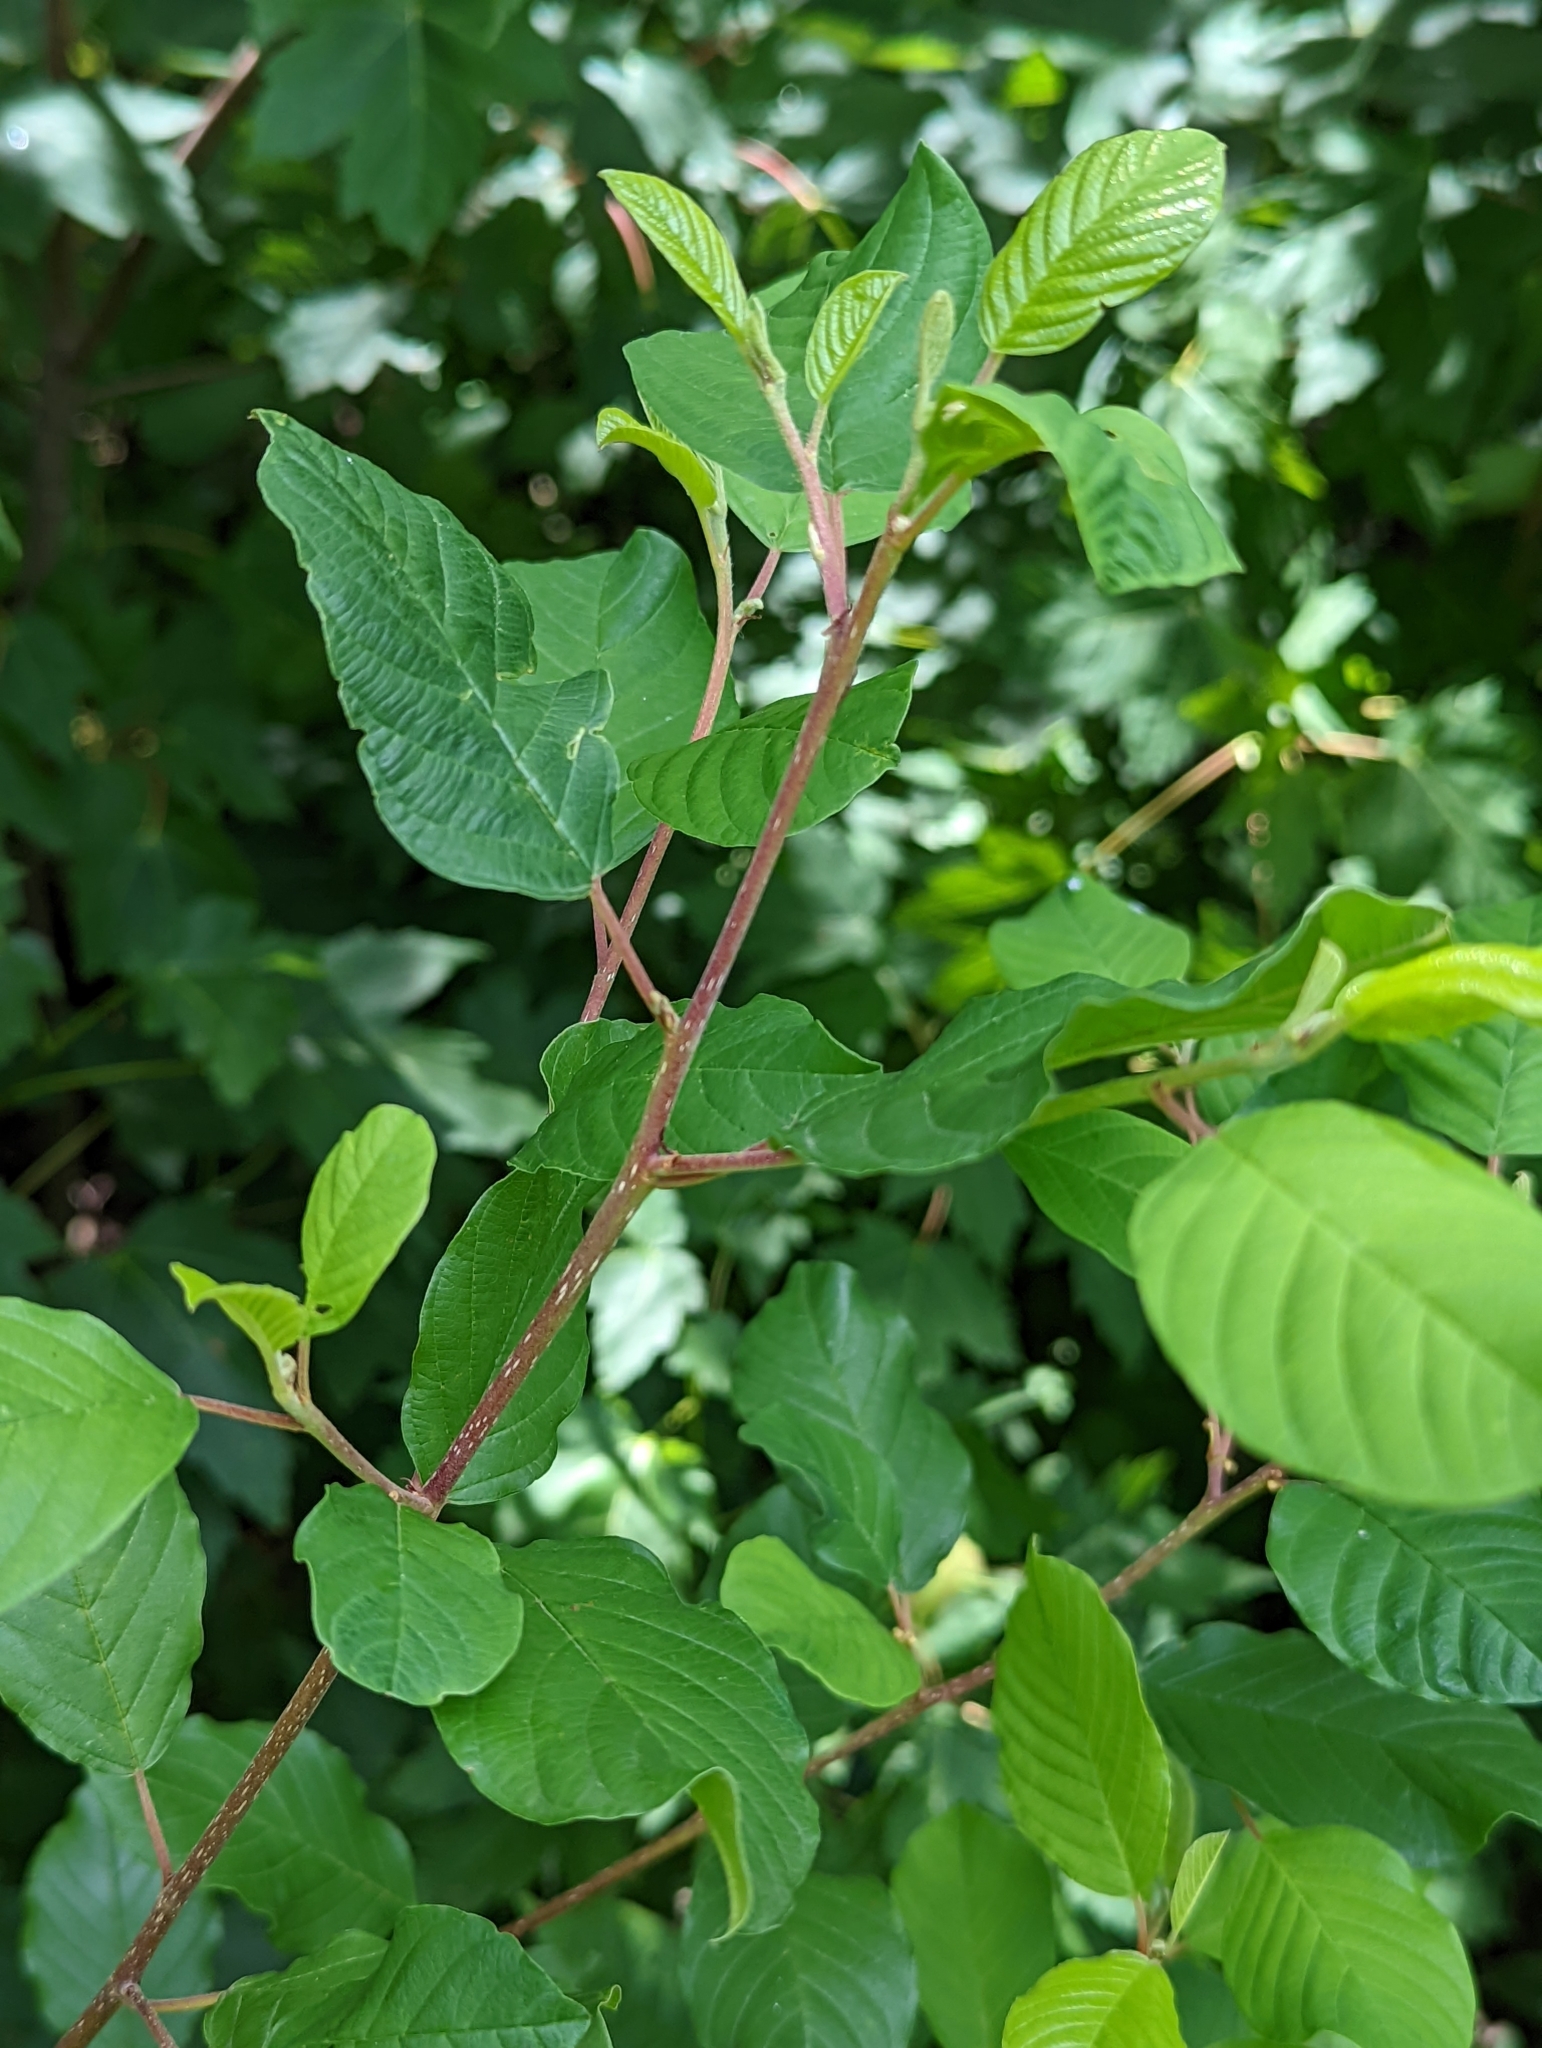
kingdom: Plantae
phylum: Tracheophyta
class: Magnoliopsida
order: Rosales
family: Rhamnaceae
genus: Frangula
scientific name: Frangula alnus
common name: Alder buckthorn
